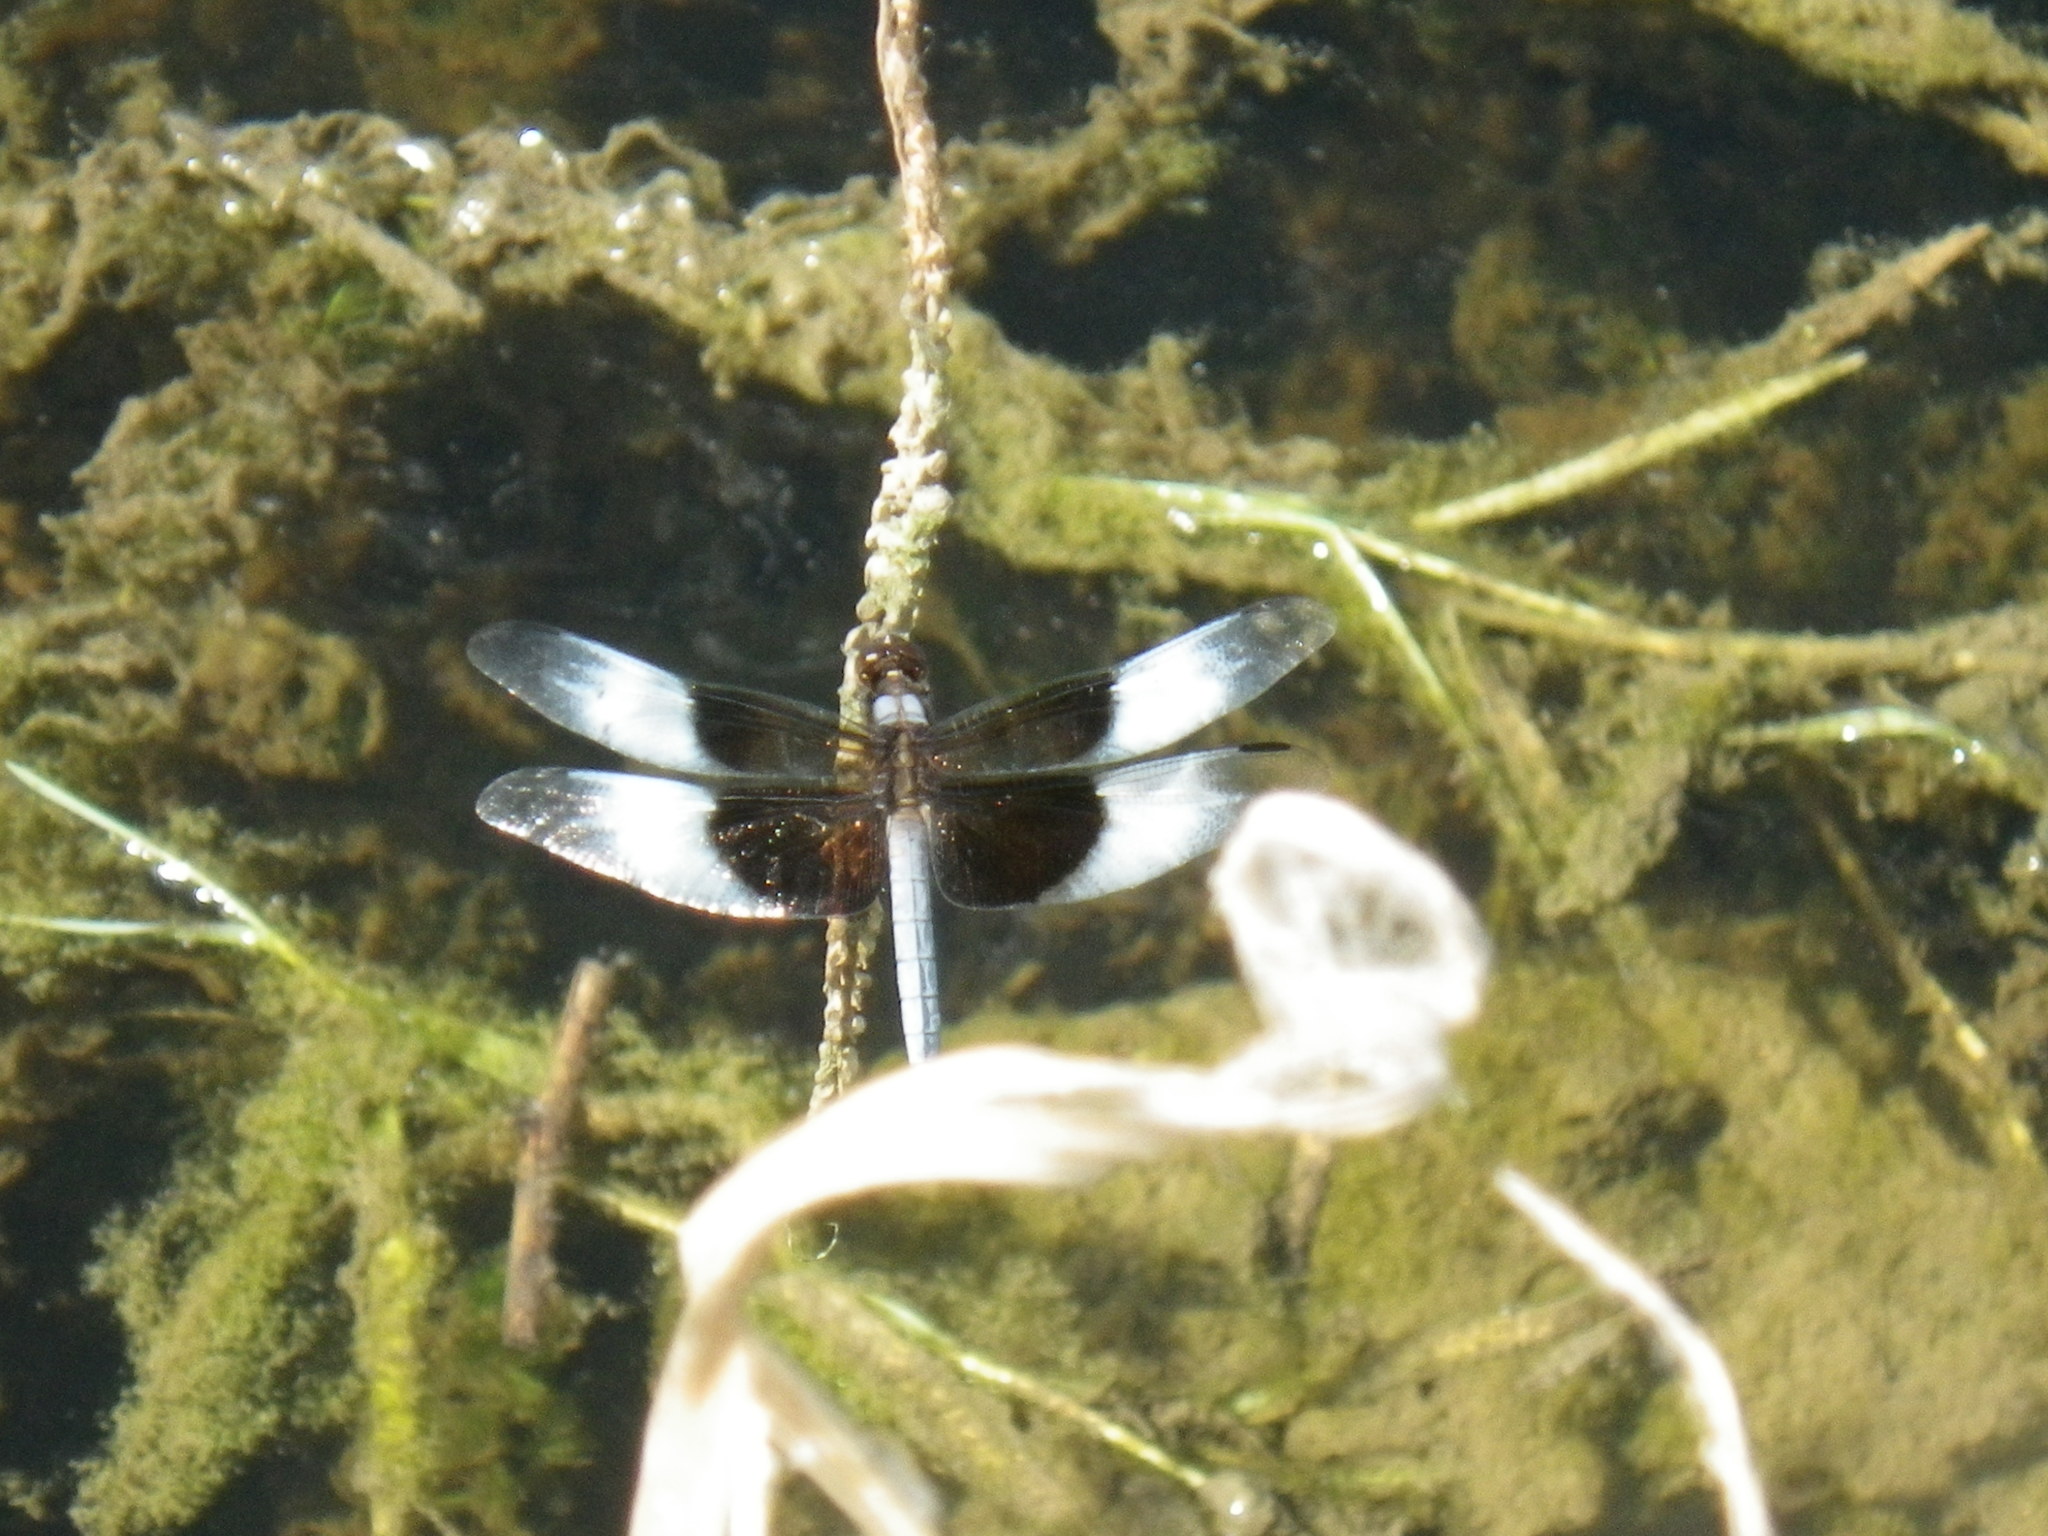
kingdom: Animalia
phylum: Arthropoda
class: Insecta
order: Odonata
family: Libellulidae
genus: Libellula
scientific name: Libellula luctuosa
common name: Widow skimmer
